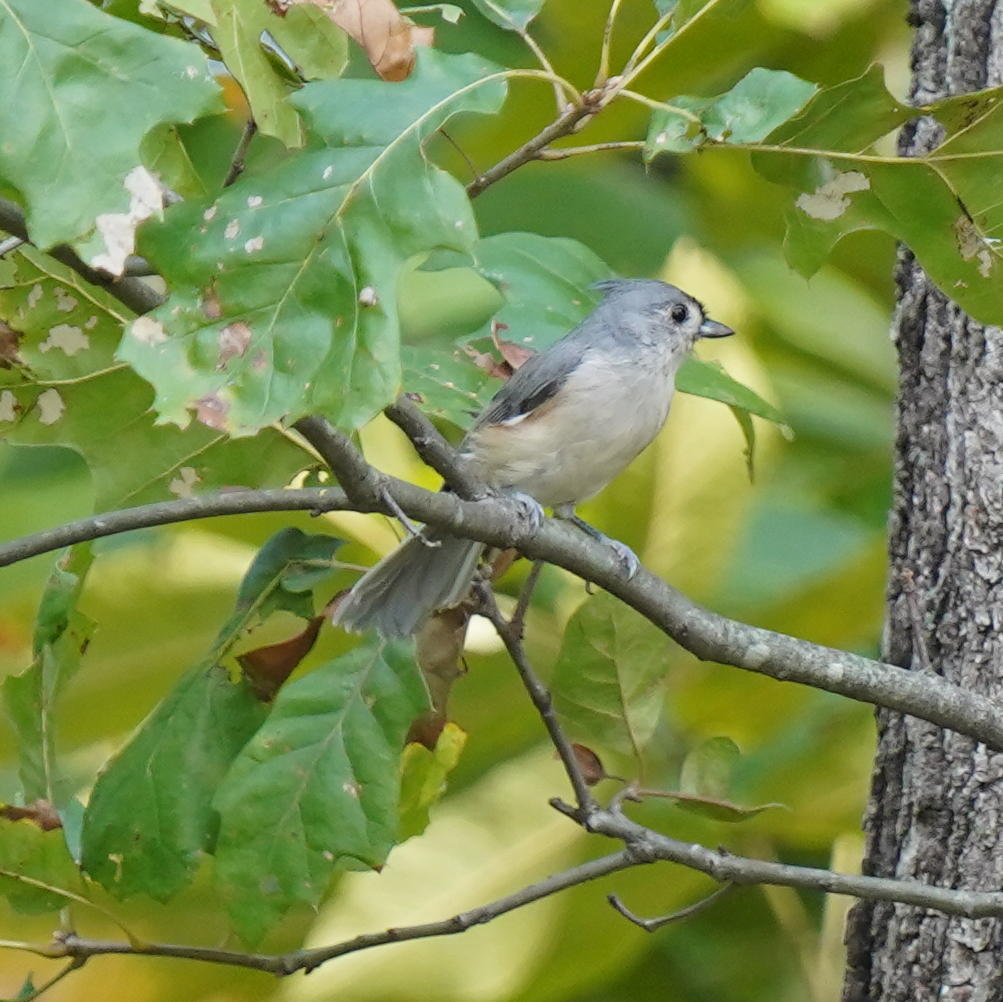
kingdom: Animalia
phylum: Chordata
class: Aves
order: Passeriformes
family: Paridae
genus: Baeolophus
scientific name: Baeolophus bicolor
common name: Tufted titmouse
